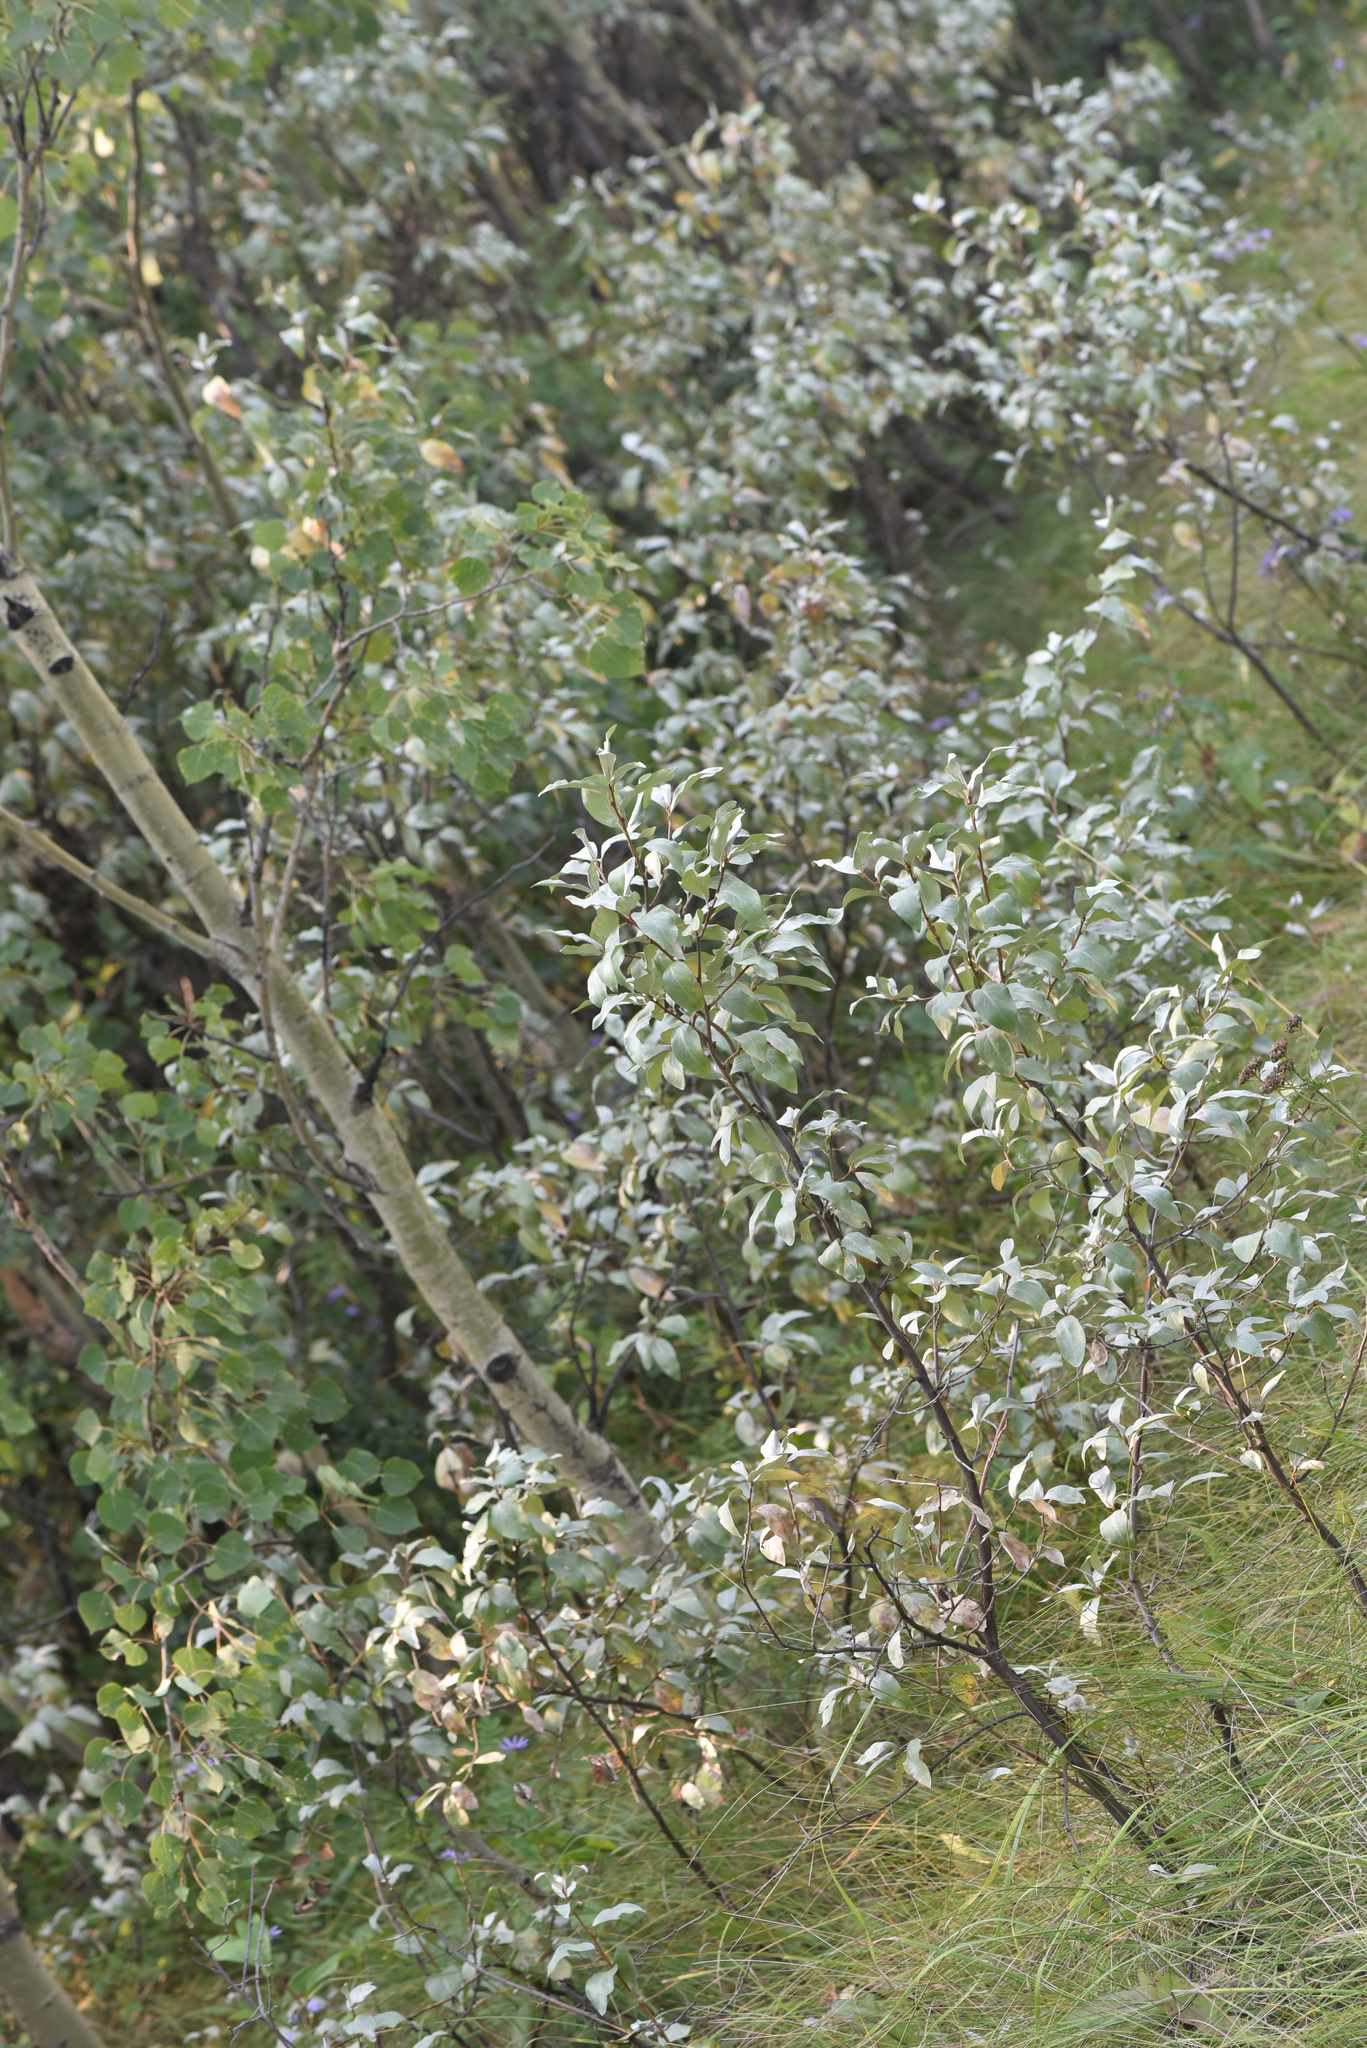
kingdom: Plantae
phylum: Tracheophyta
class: Magnoliopsida
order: Rosales
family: Elaeagnaceae
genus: Elaeagnus
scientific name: Elaeagnus commutata
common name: Silverberry
